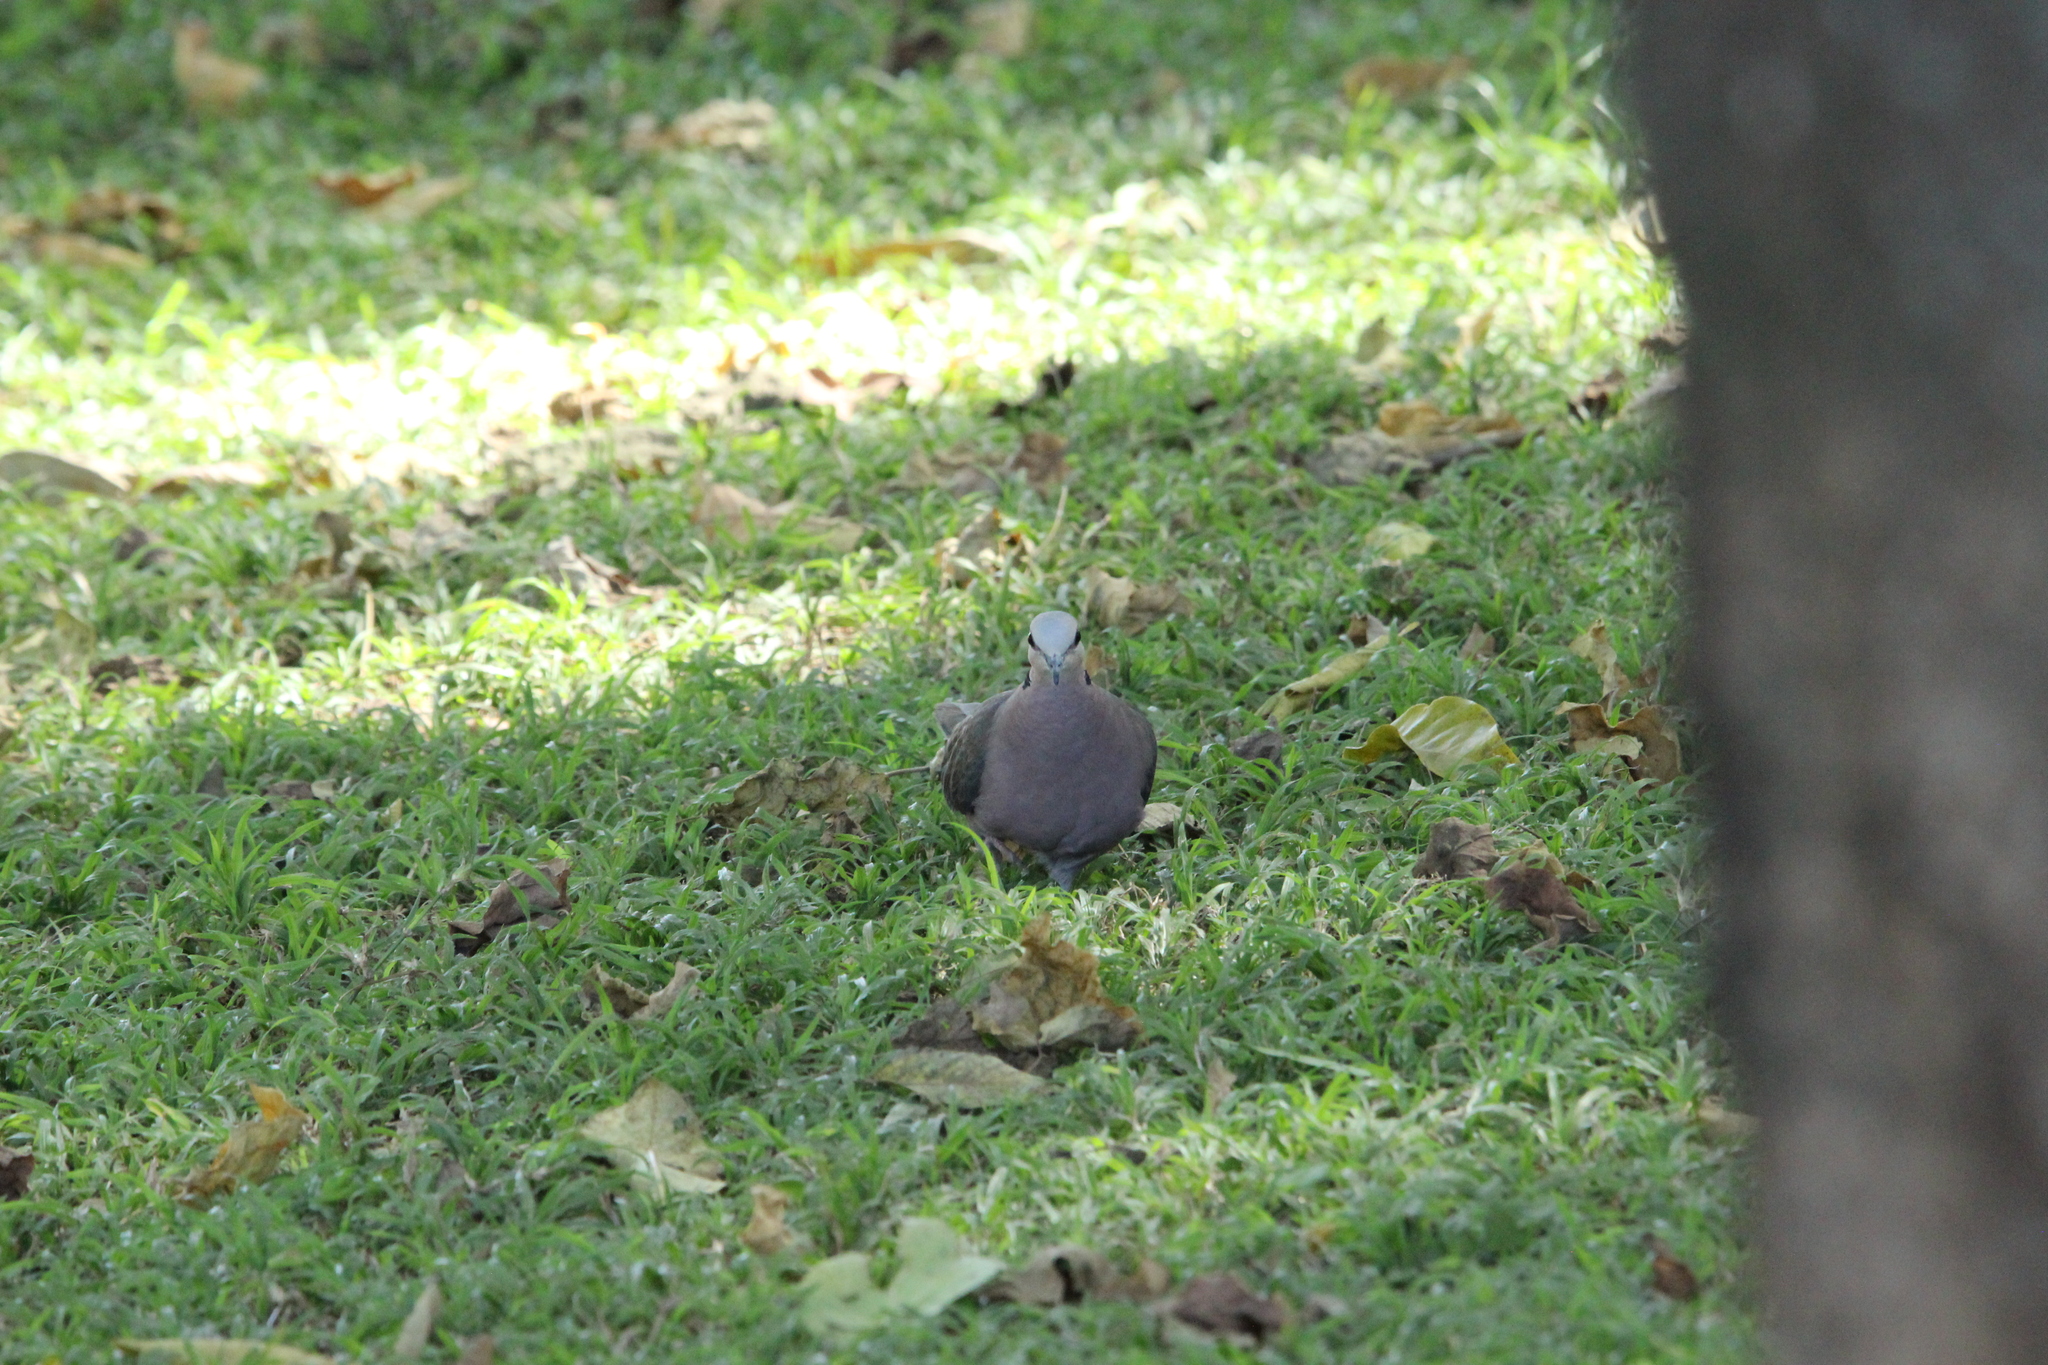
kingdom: Animalia
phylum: Chordata
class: Aves
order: Columbiformes
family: Columbidae
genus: Streptopelia
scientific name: Streptopelia semitorquata
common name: Red-eyed dove
